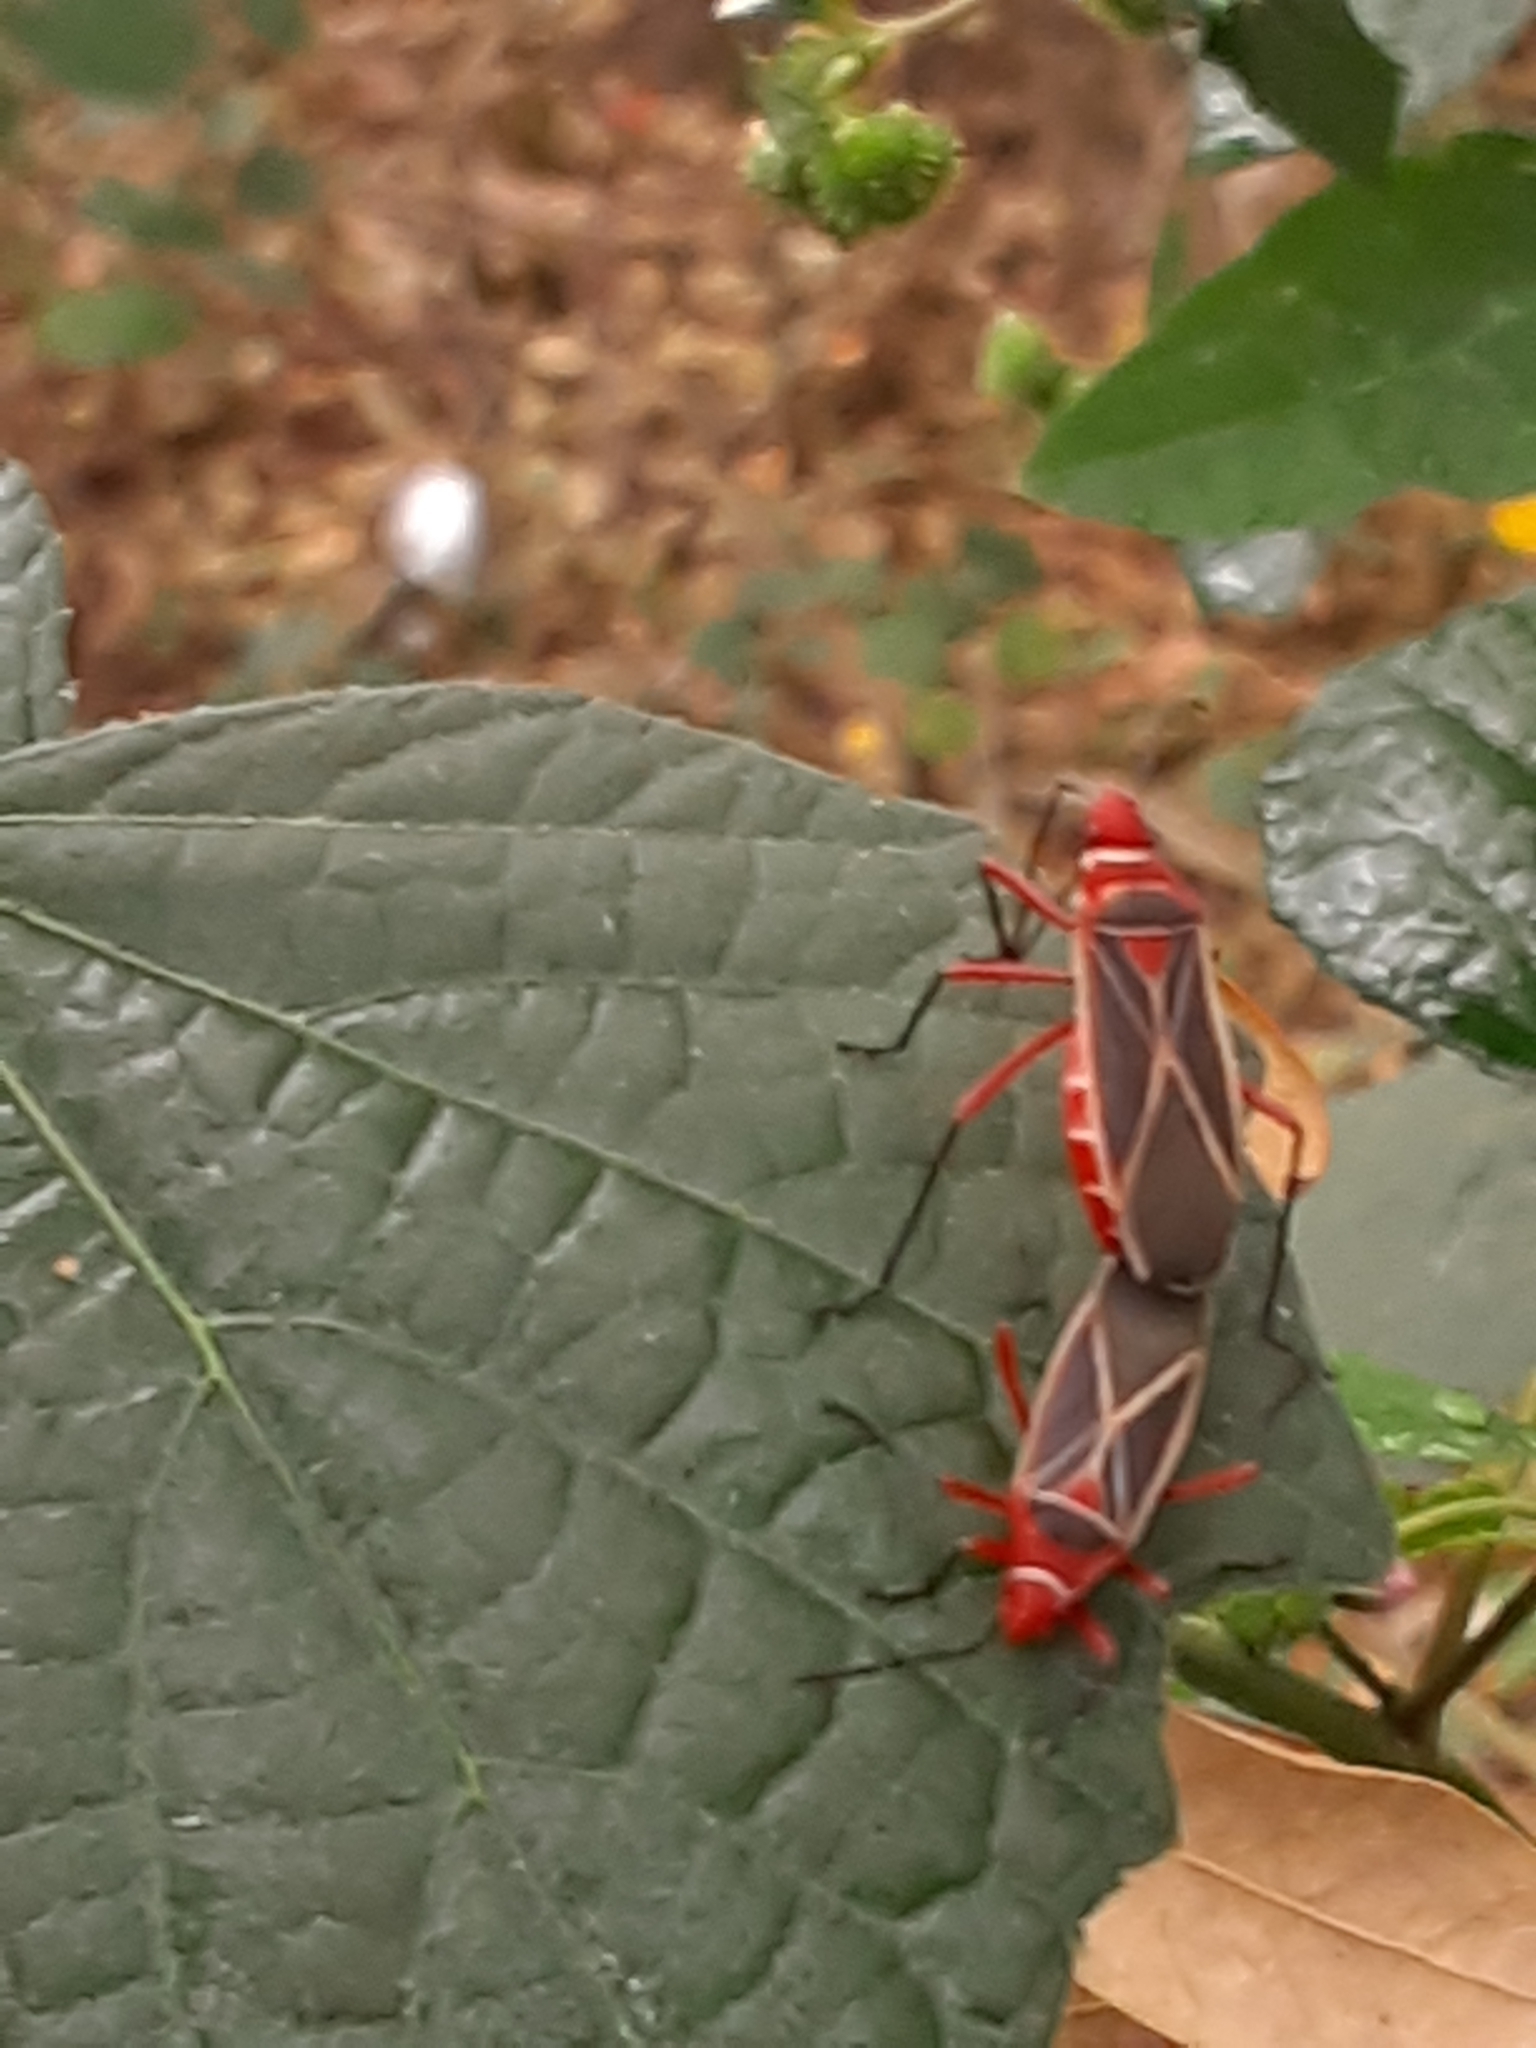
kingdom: Animalia
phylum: Arthropoda
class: Insecta
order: Hemiptera
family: Pyrrhocoridae
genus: Dysdercus
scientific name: Dysdercus suturellus
